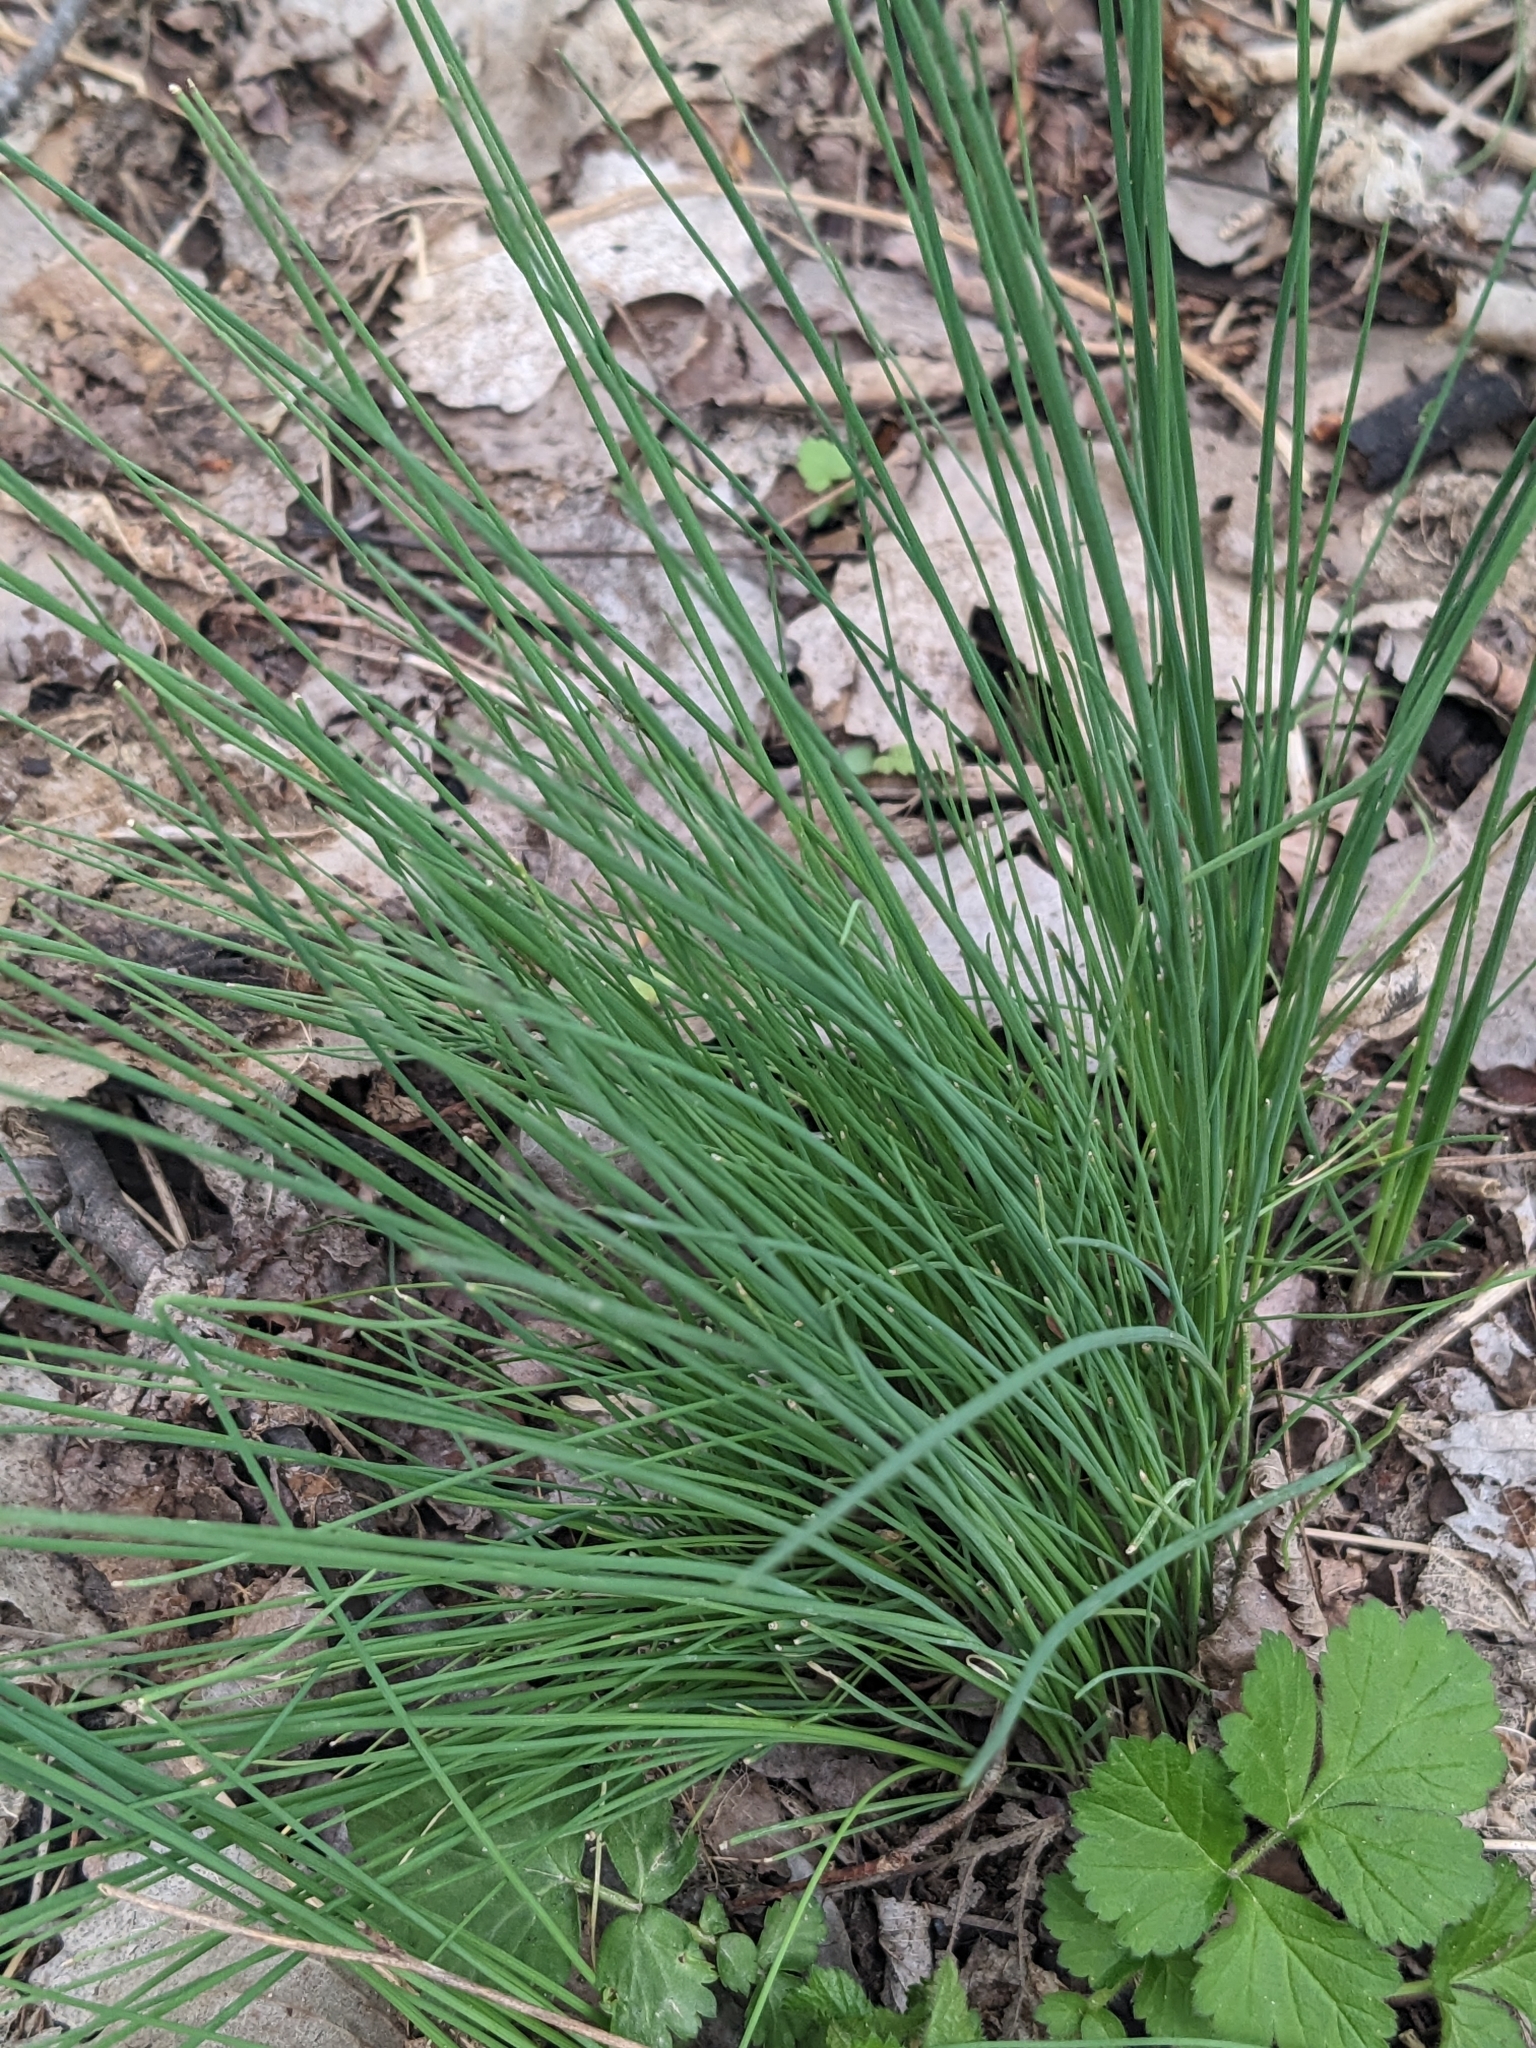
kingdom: Plantae
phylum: Tracheophyta
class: Liliopsida
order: Asparagales
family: Amaryllidaceae
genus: Allium
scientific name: Allium vineale
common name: Crow garlic
